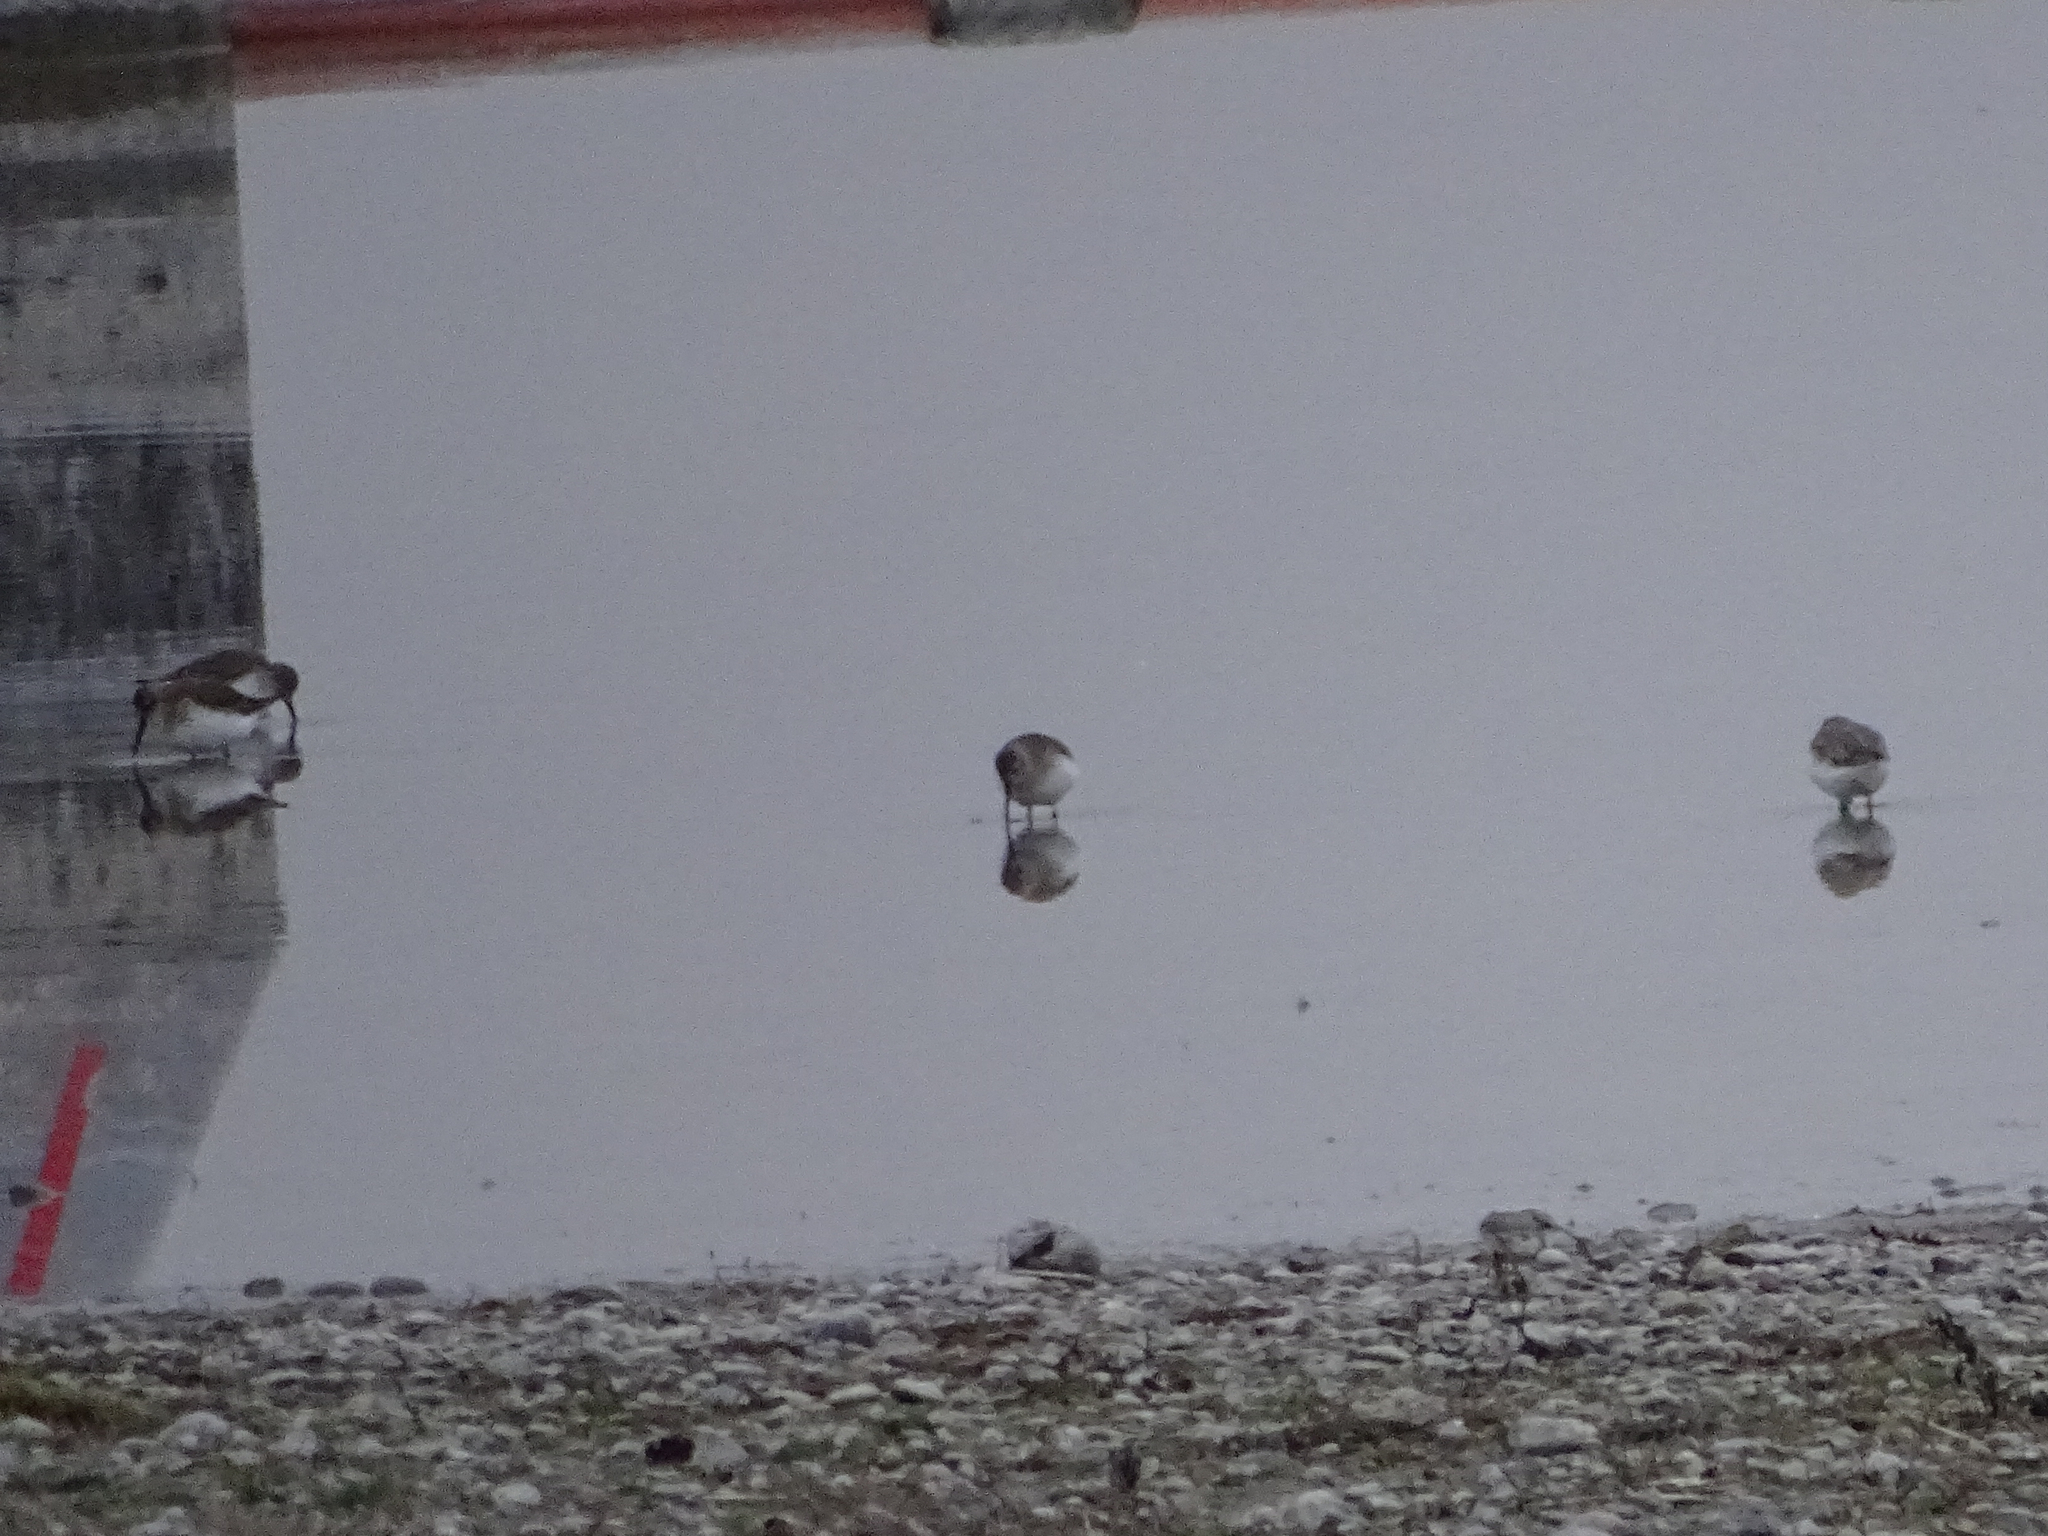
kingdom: Animalia
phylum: Chordata
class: Aves
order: Charadriiformes
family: Scolopacidae
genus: Calidris
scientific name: Calidris alpina
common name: Dunlin
